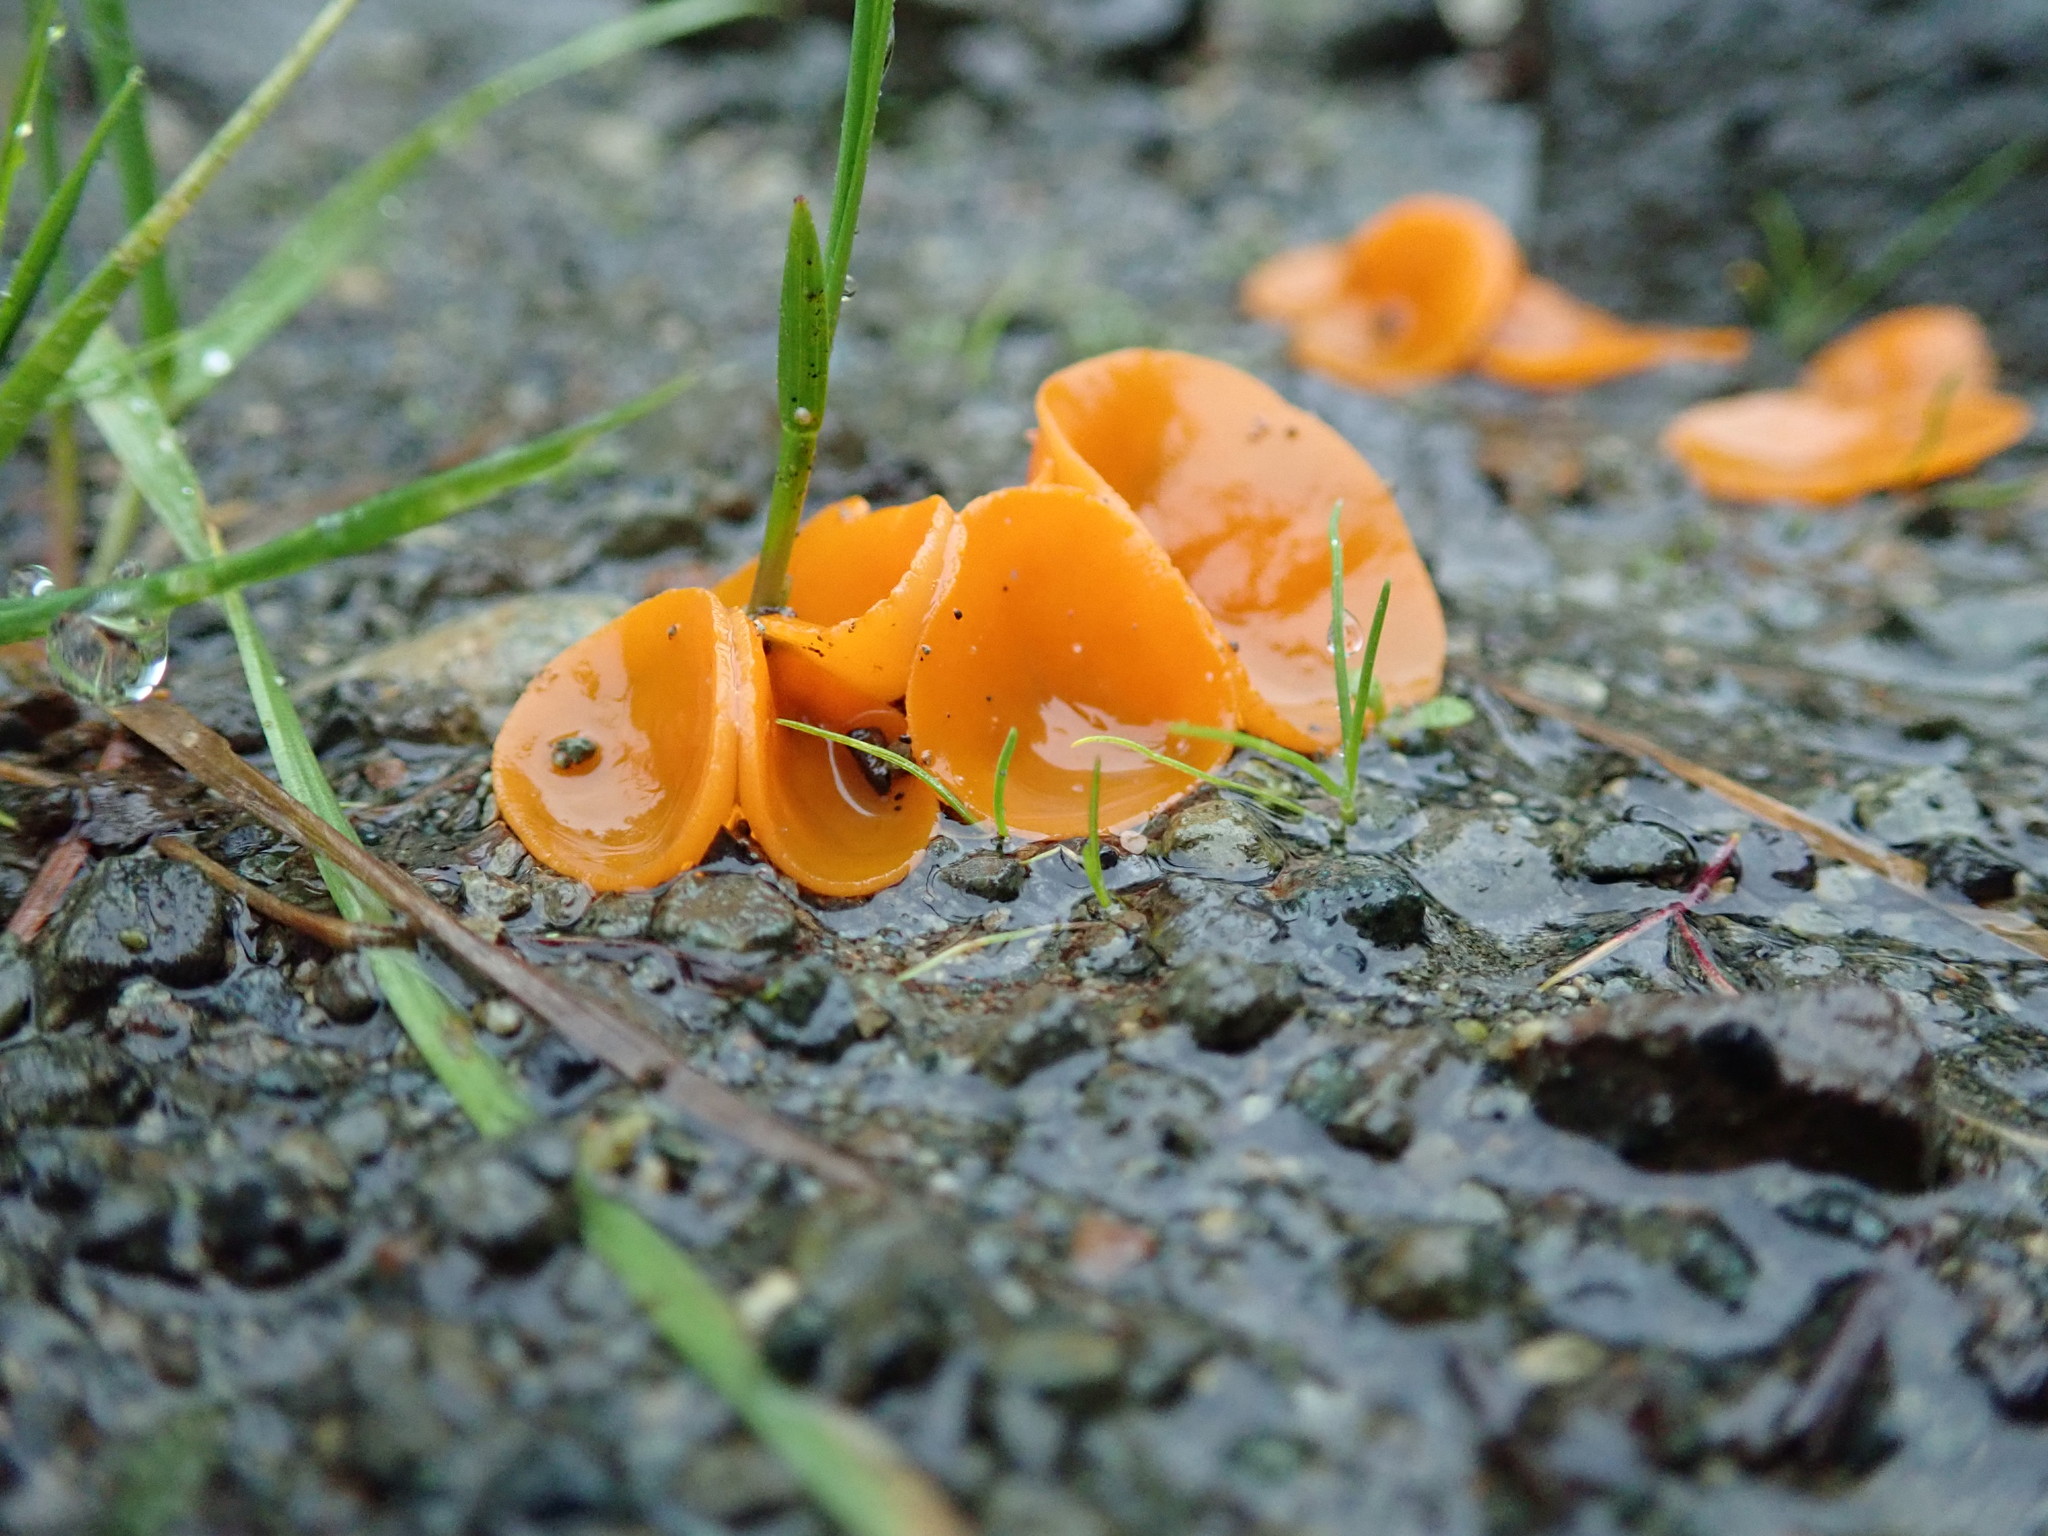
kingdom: Fungi
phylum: Ascomycota
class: Pezizomycetes
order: Pezizales
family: Pyronemataceae
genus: Aleuria
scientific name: Aleuria aurantia
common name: Orange peel fungus
